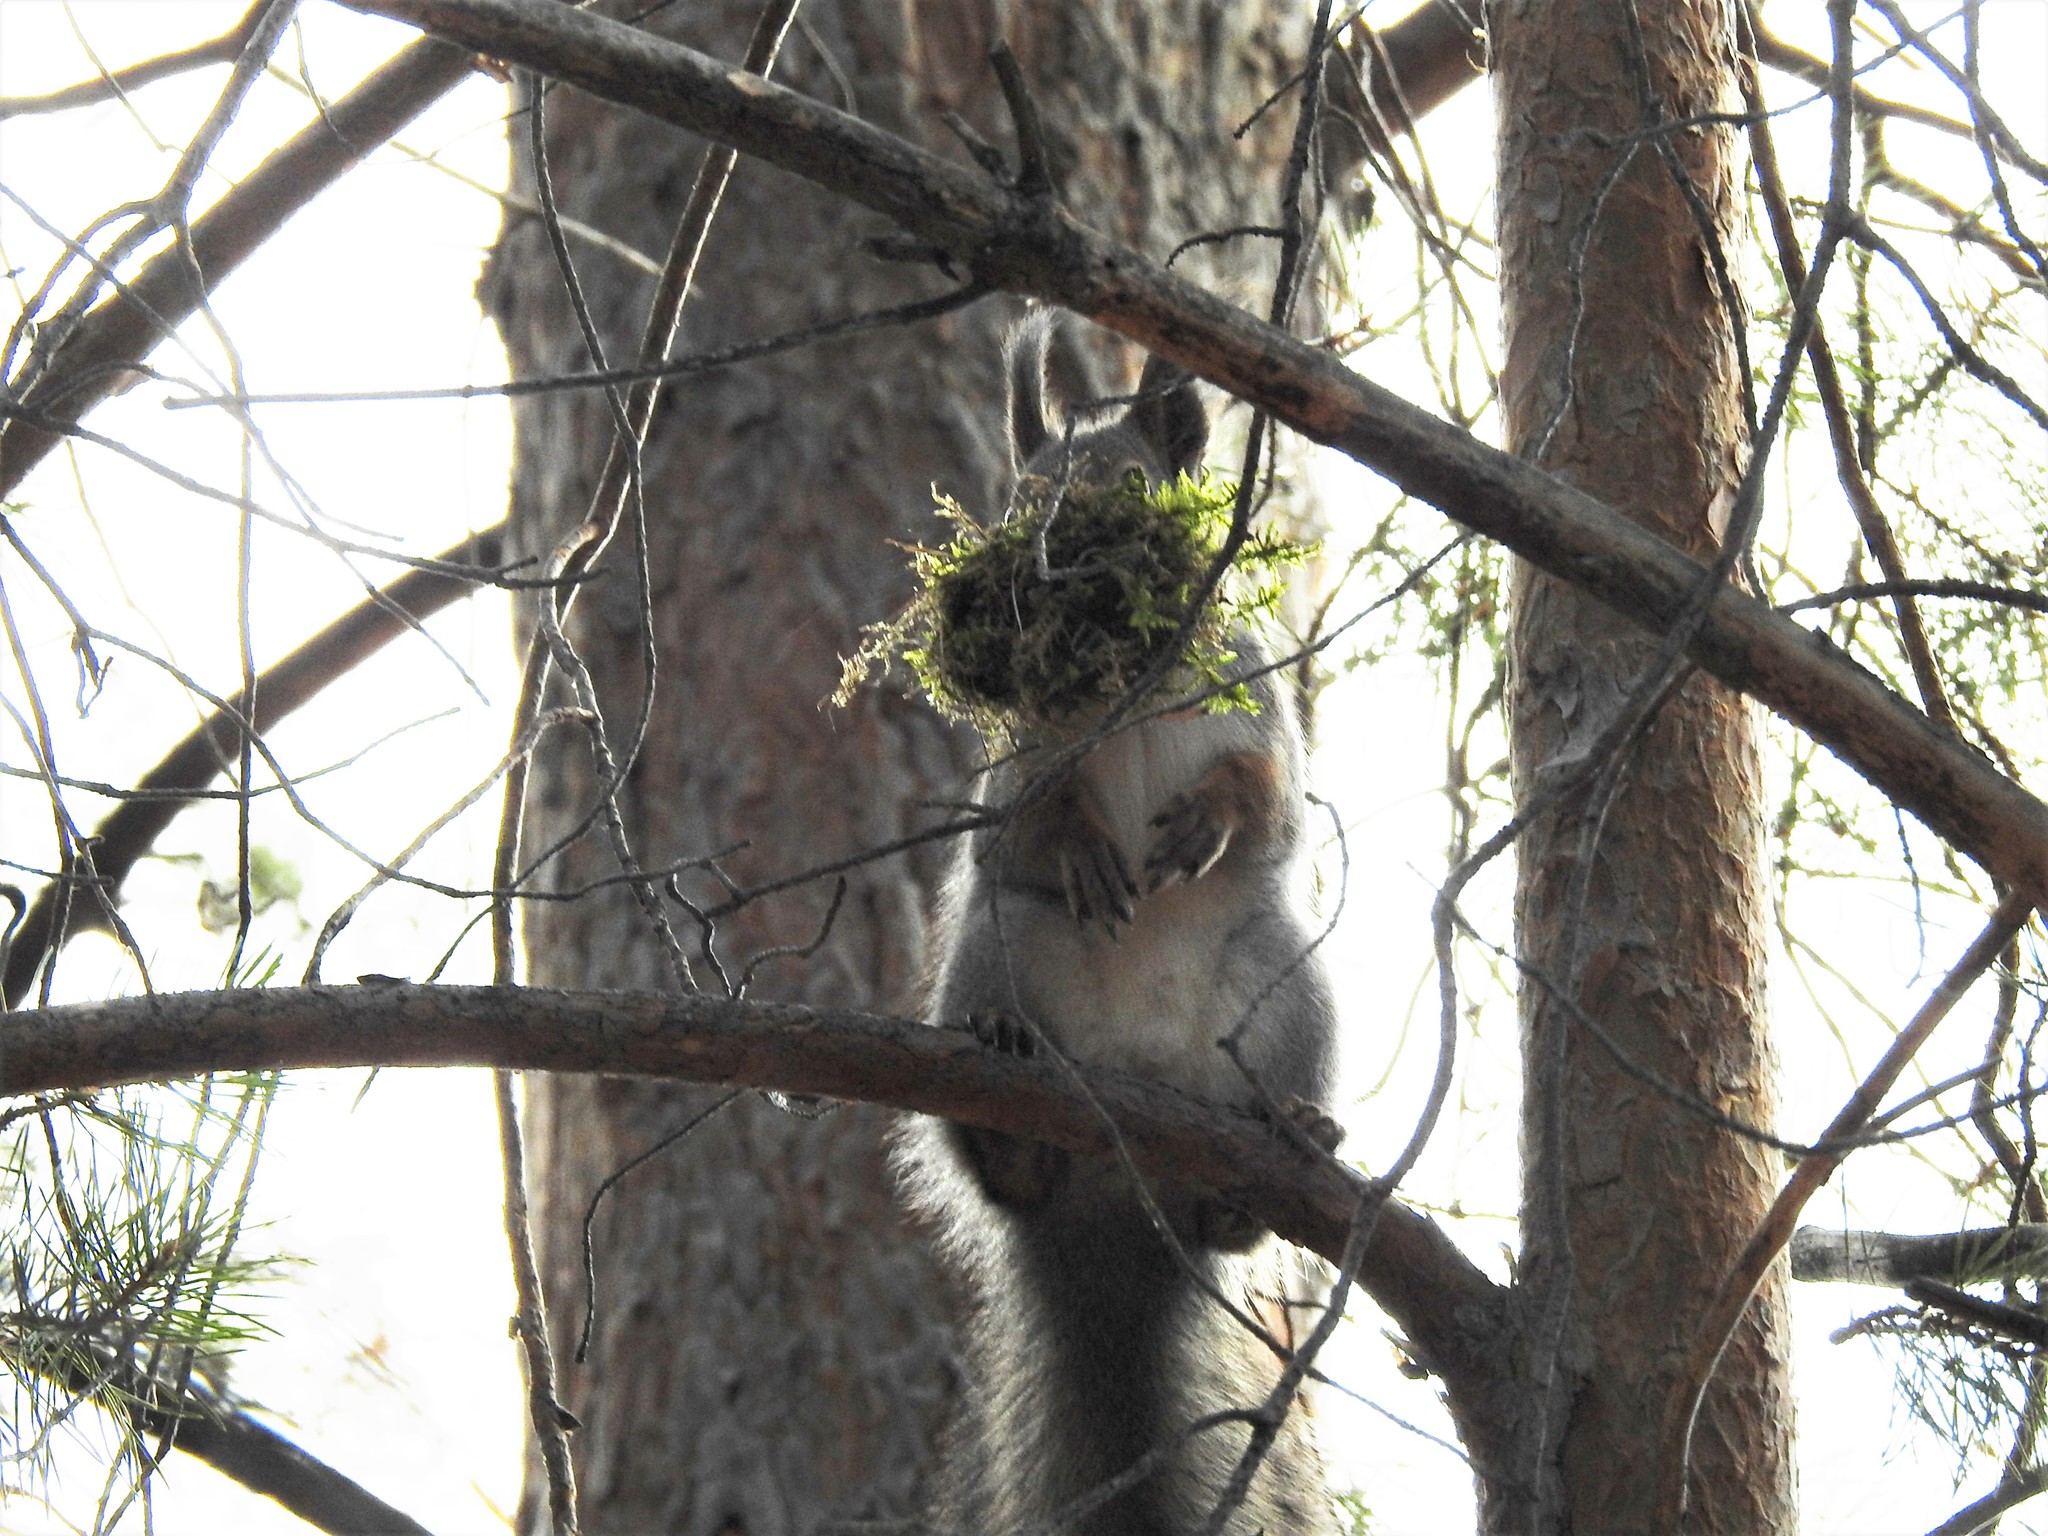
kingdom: Animalia
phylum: Chordata
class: Mammalia
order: Rodentia
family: Sciuridae
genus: Sciurus
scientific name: Sciurus vulgaris
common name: Eurasian red squirrel
